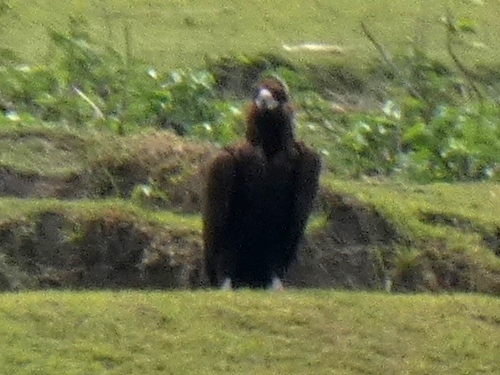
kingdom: Animalia
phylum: Chordata
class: Aves
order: Accipitriformes
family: Accipitridae
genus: Aegypius
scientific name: Aegypius monachus
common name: Cinereous vulture
